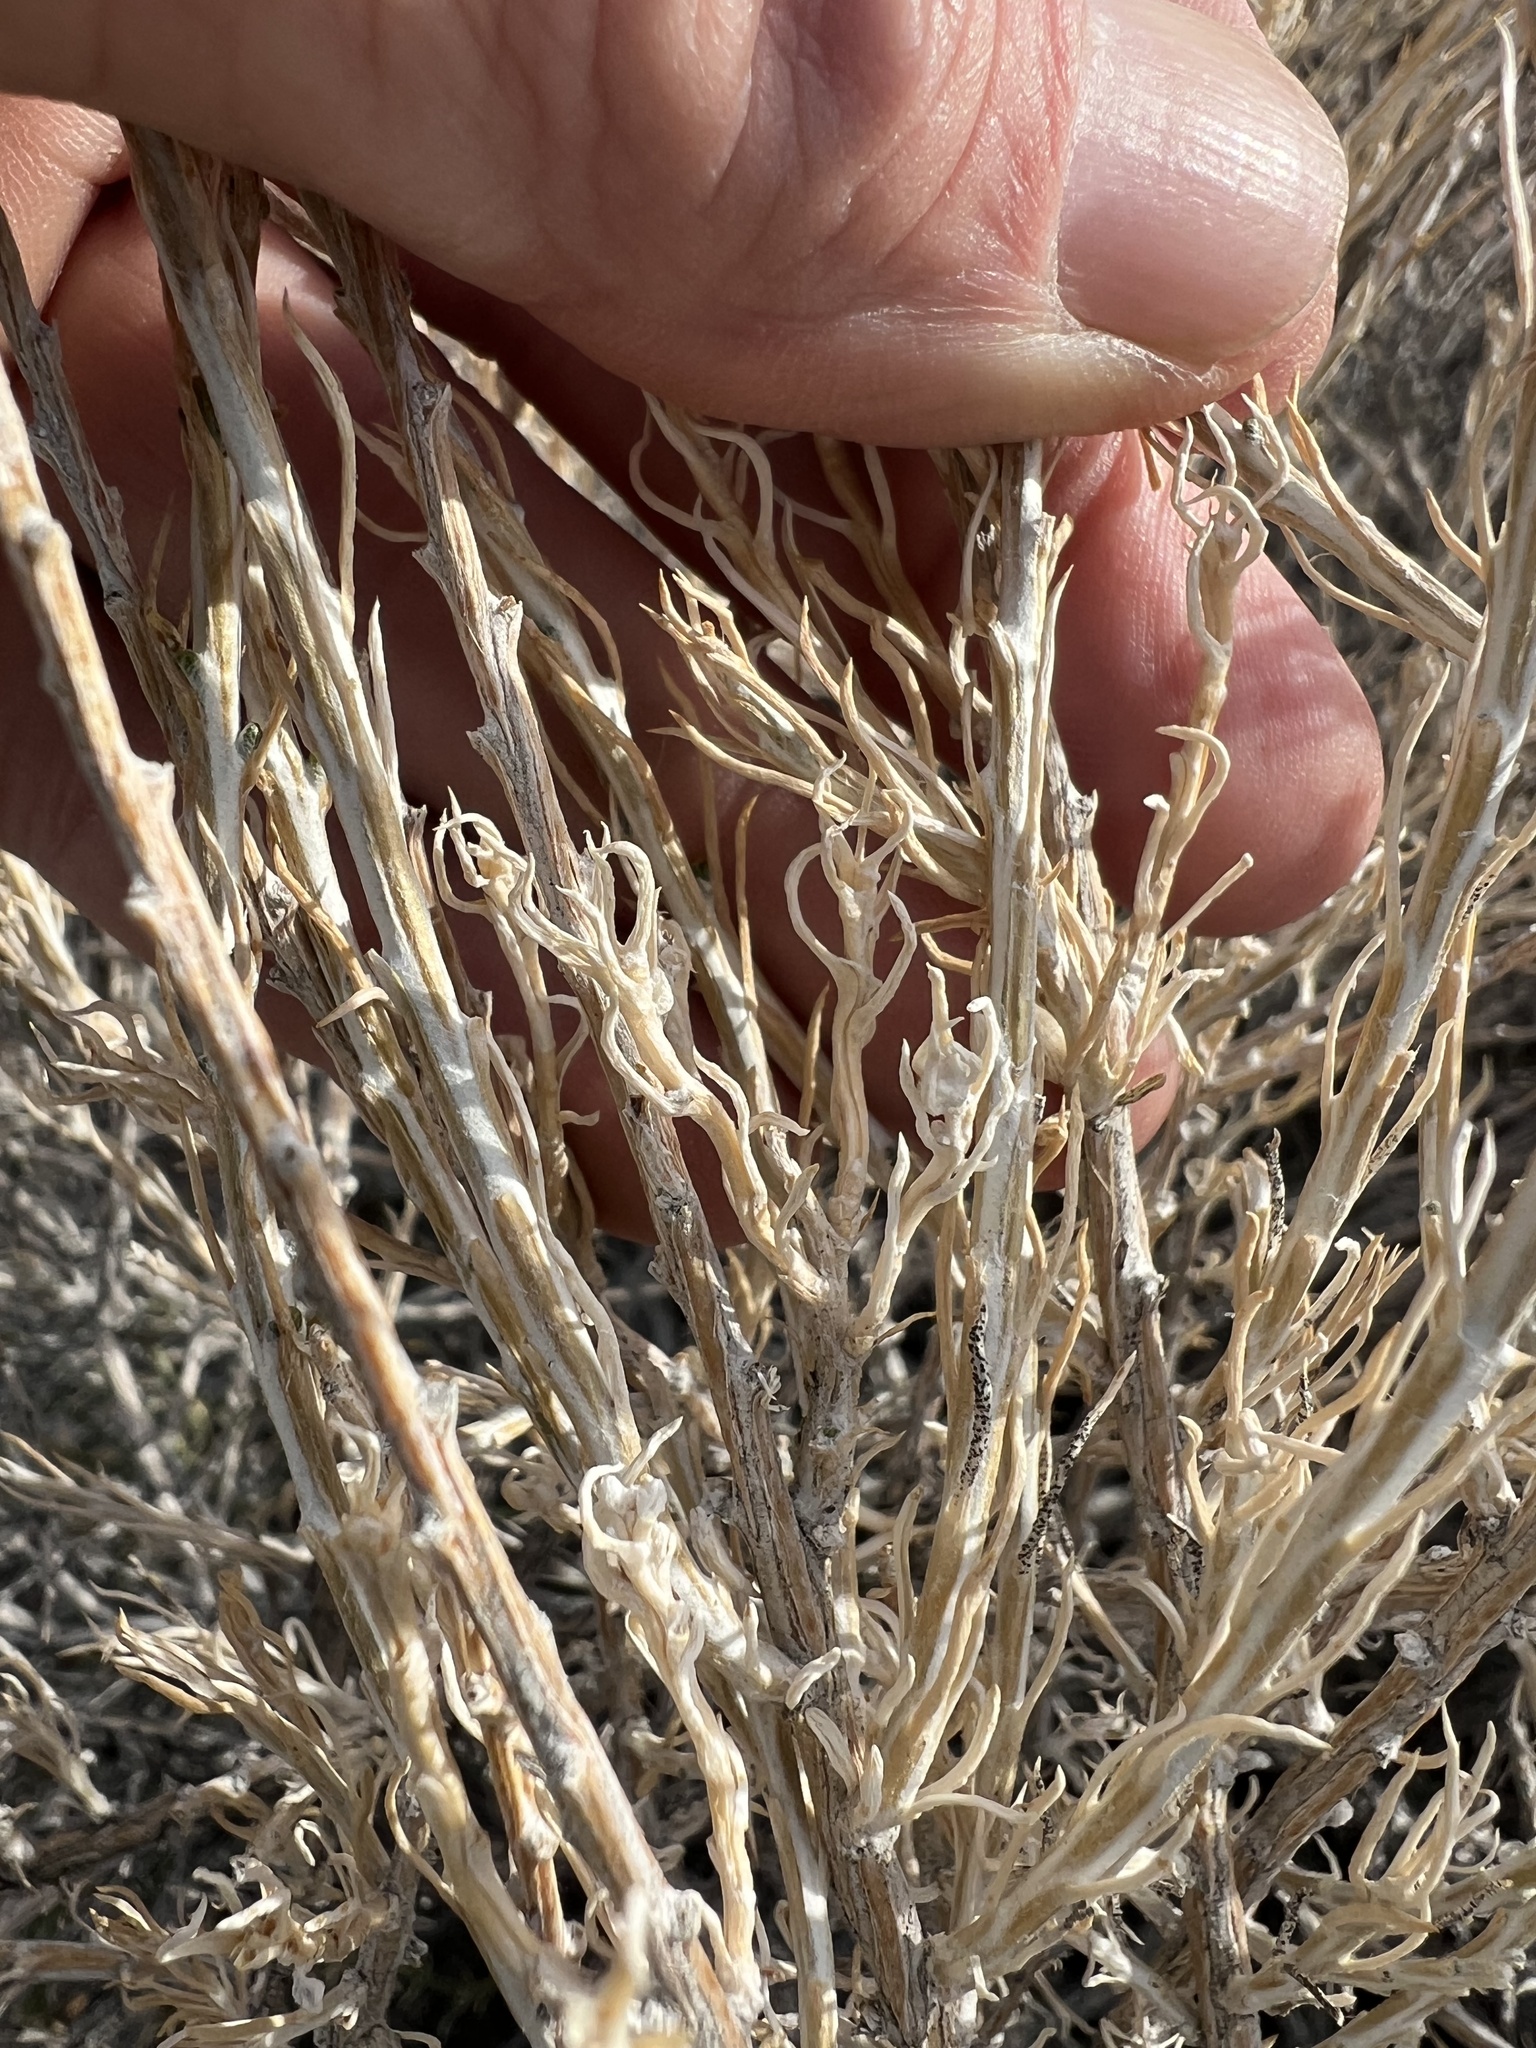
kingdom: Plantae
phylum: Tracheophyta
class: Magnoliopsida
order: Asterales
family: Asteraceae
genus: Tetradymia
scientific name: Tetradymia glabrata
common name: Smooth tetradymia
